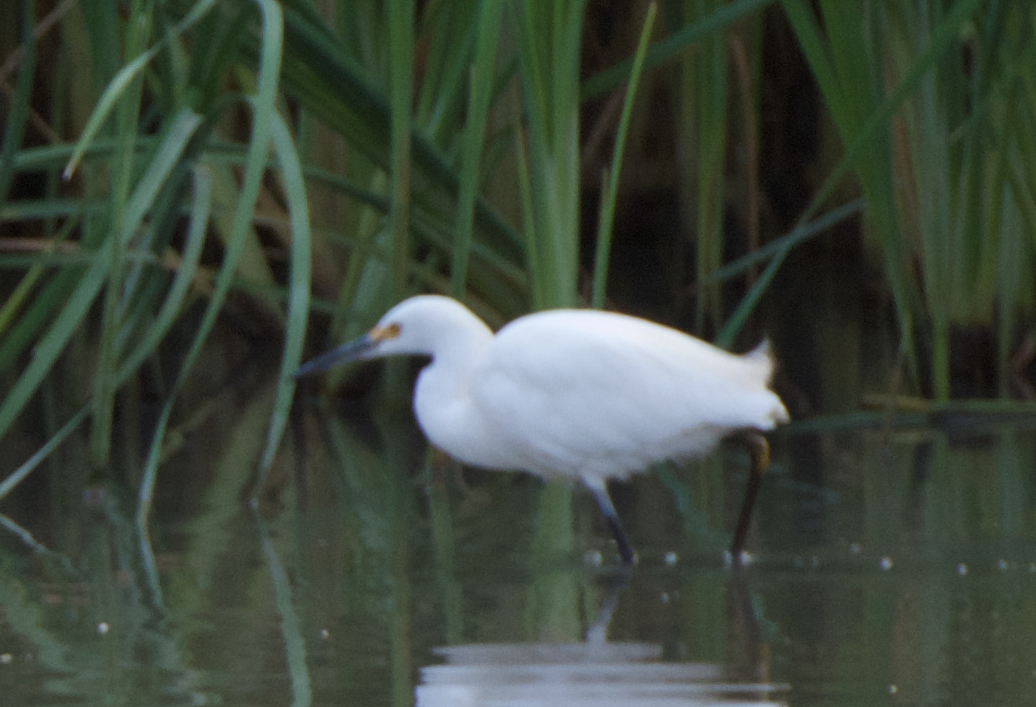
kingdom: Animalia
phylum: Chordata
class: Aves
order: Pelecaniformes
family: Ardeidae
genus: Egretta
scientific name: Egretta thula
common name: Snowy egret
